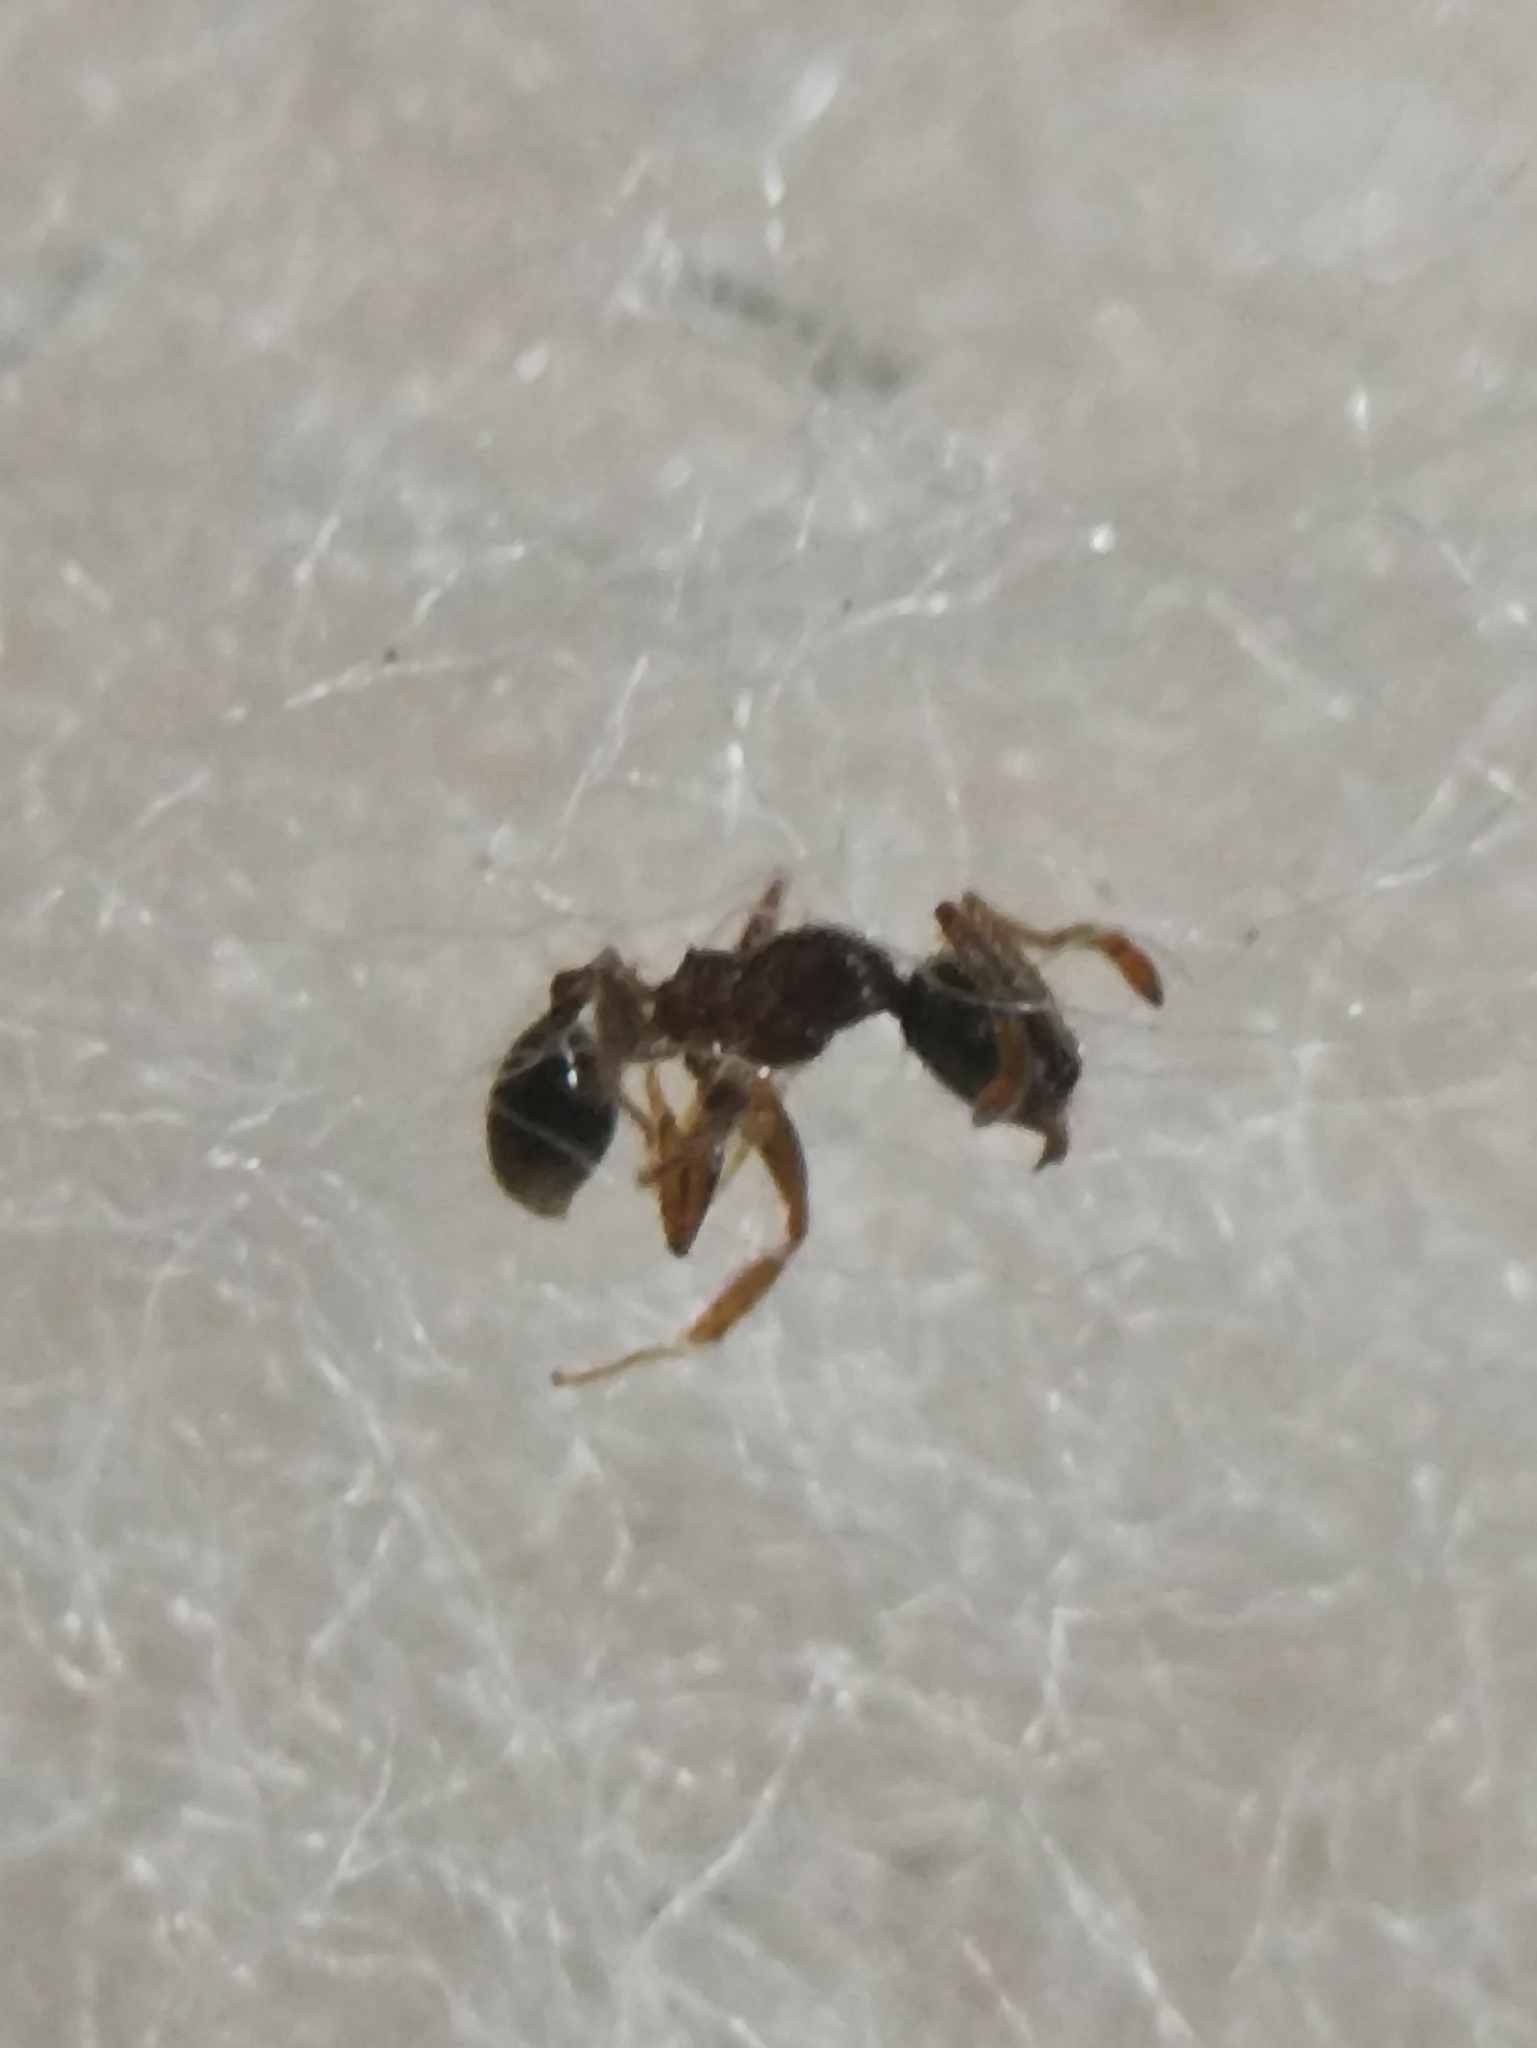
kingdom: Animalia
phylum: Arthropoda
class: Insecta
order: Hymenoptera
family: Formicidae
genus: Pheidole
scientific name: Pheidole megacephala
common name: Bigheaded ant
